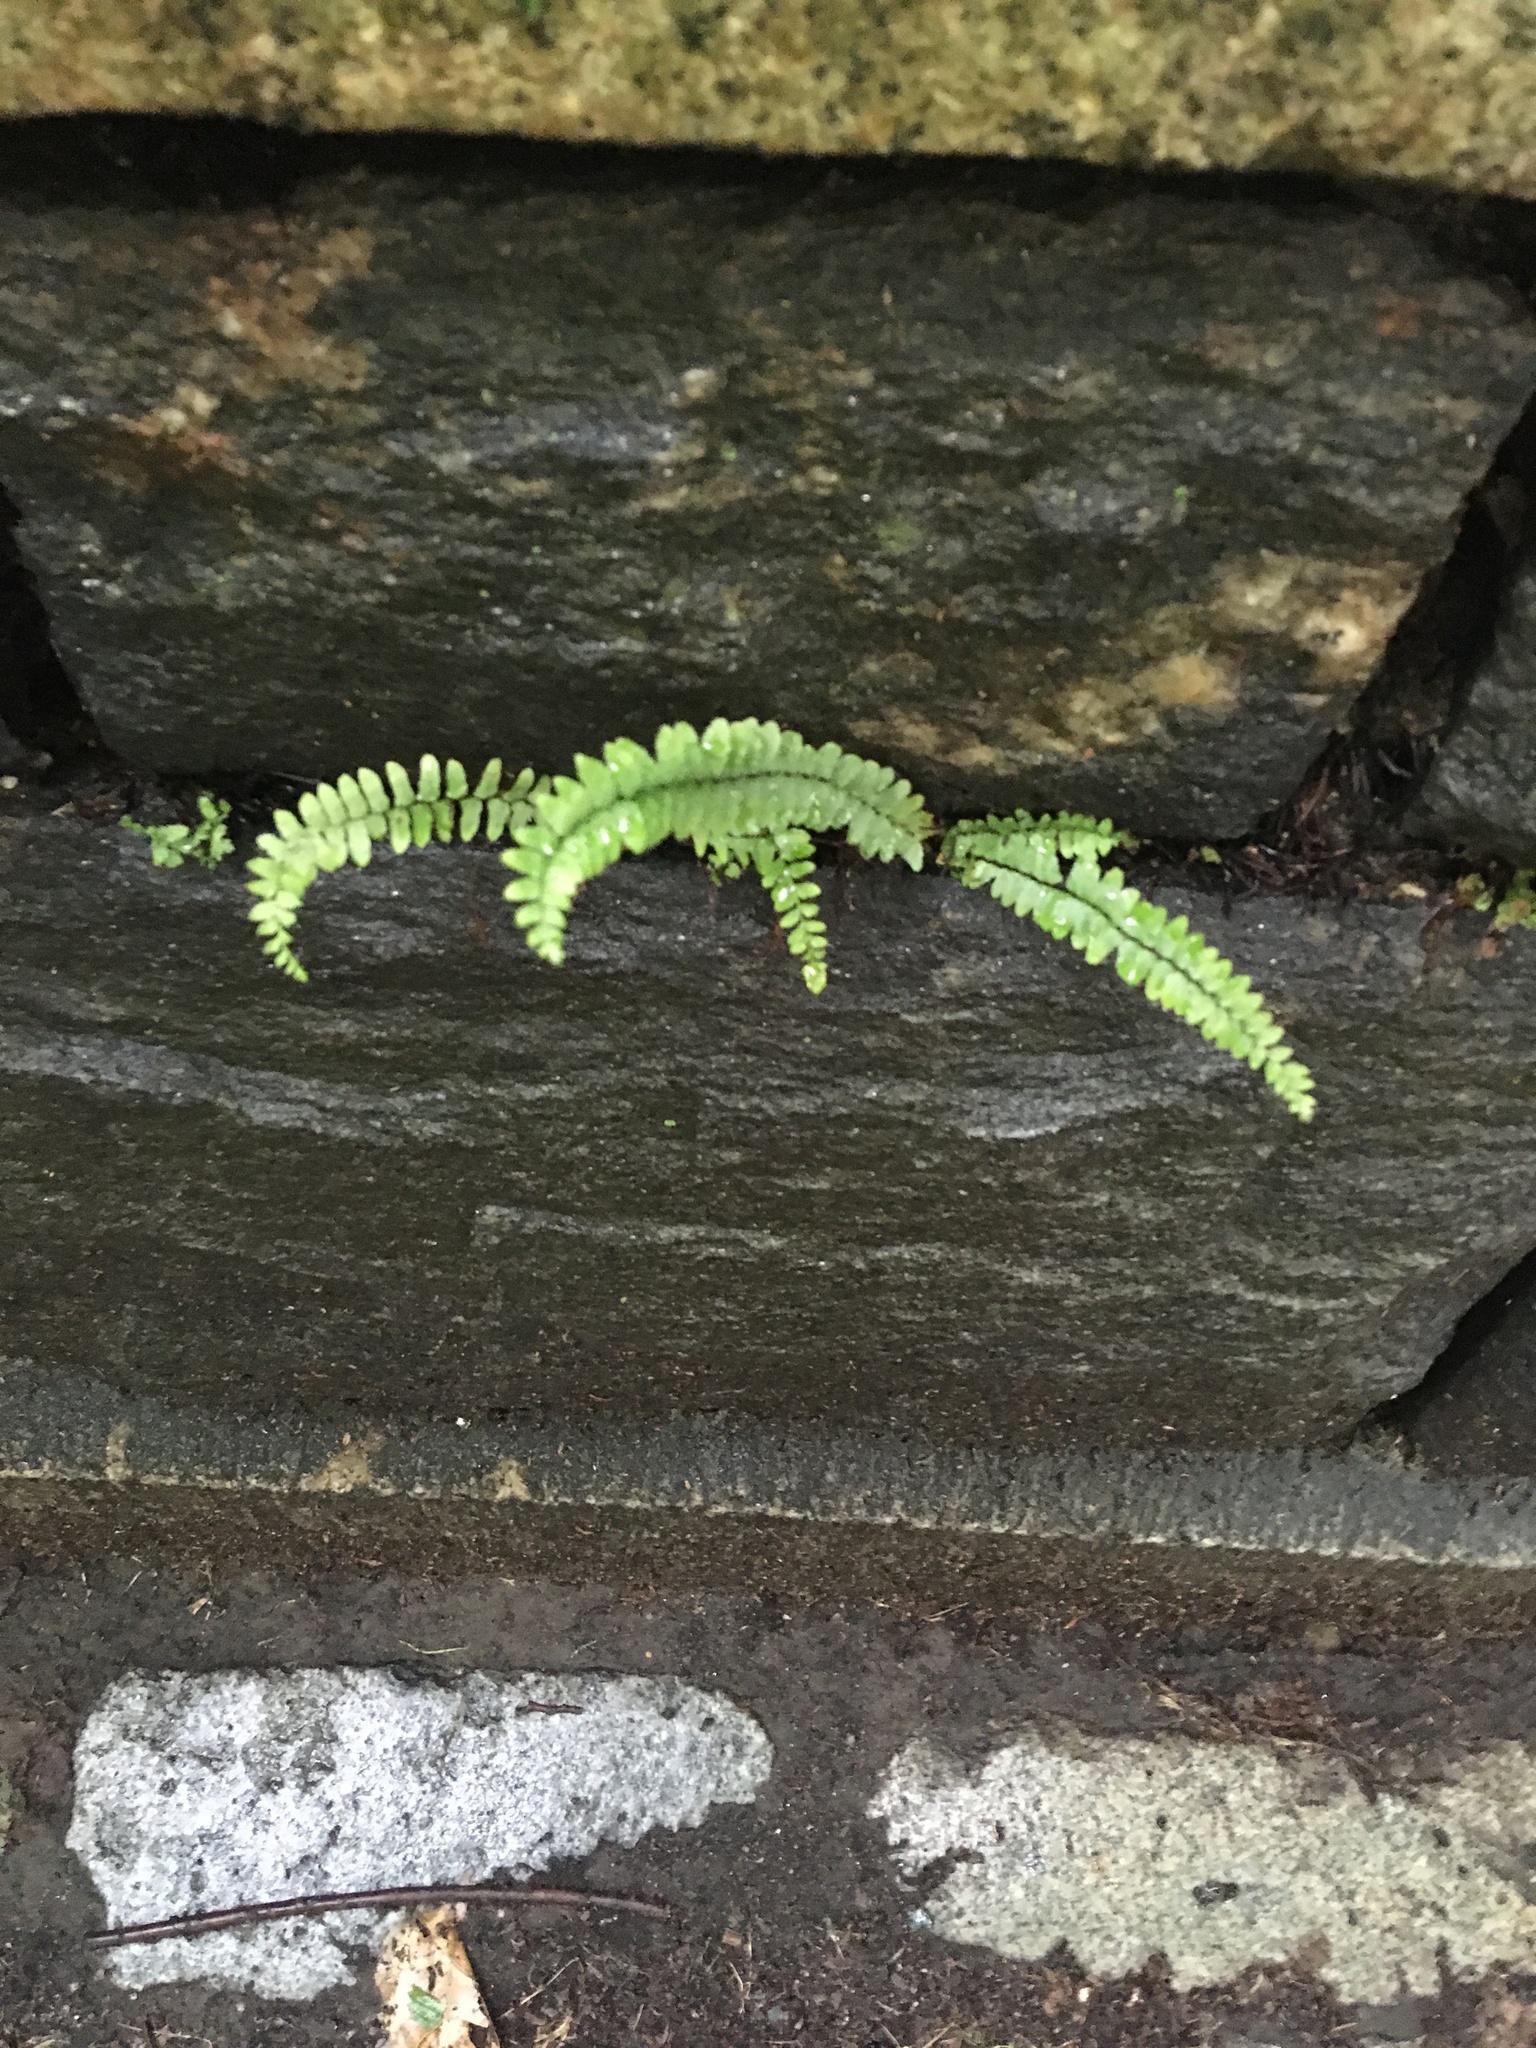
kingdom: Plantae
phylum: Tracheophyta
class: Polypodiopsida
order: Polypodiales
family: Aspleniaceae
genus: Asplenium
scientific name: Asplenium platyneuron
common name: Ebony spleenwort
